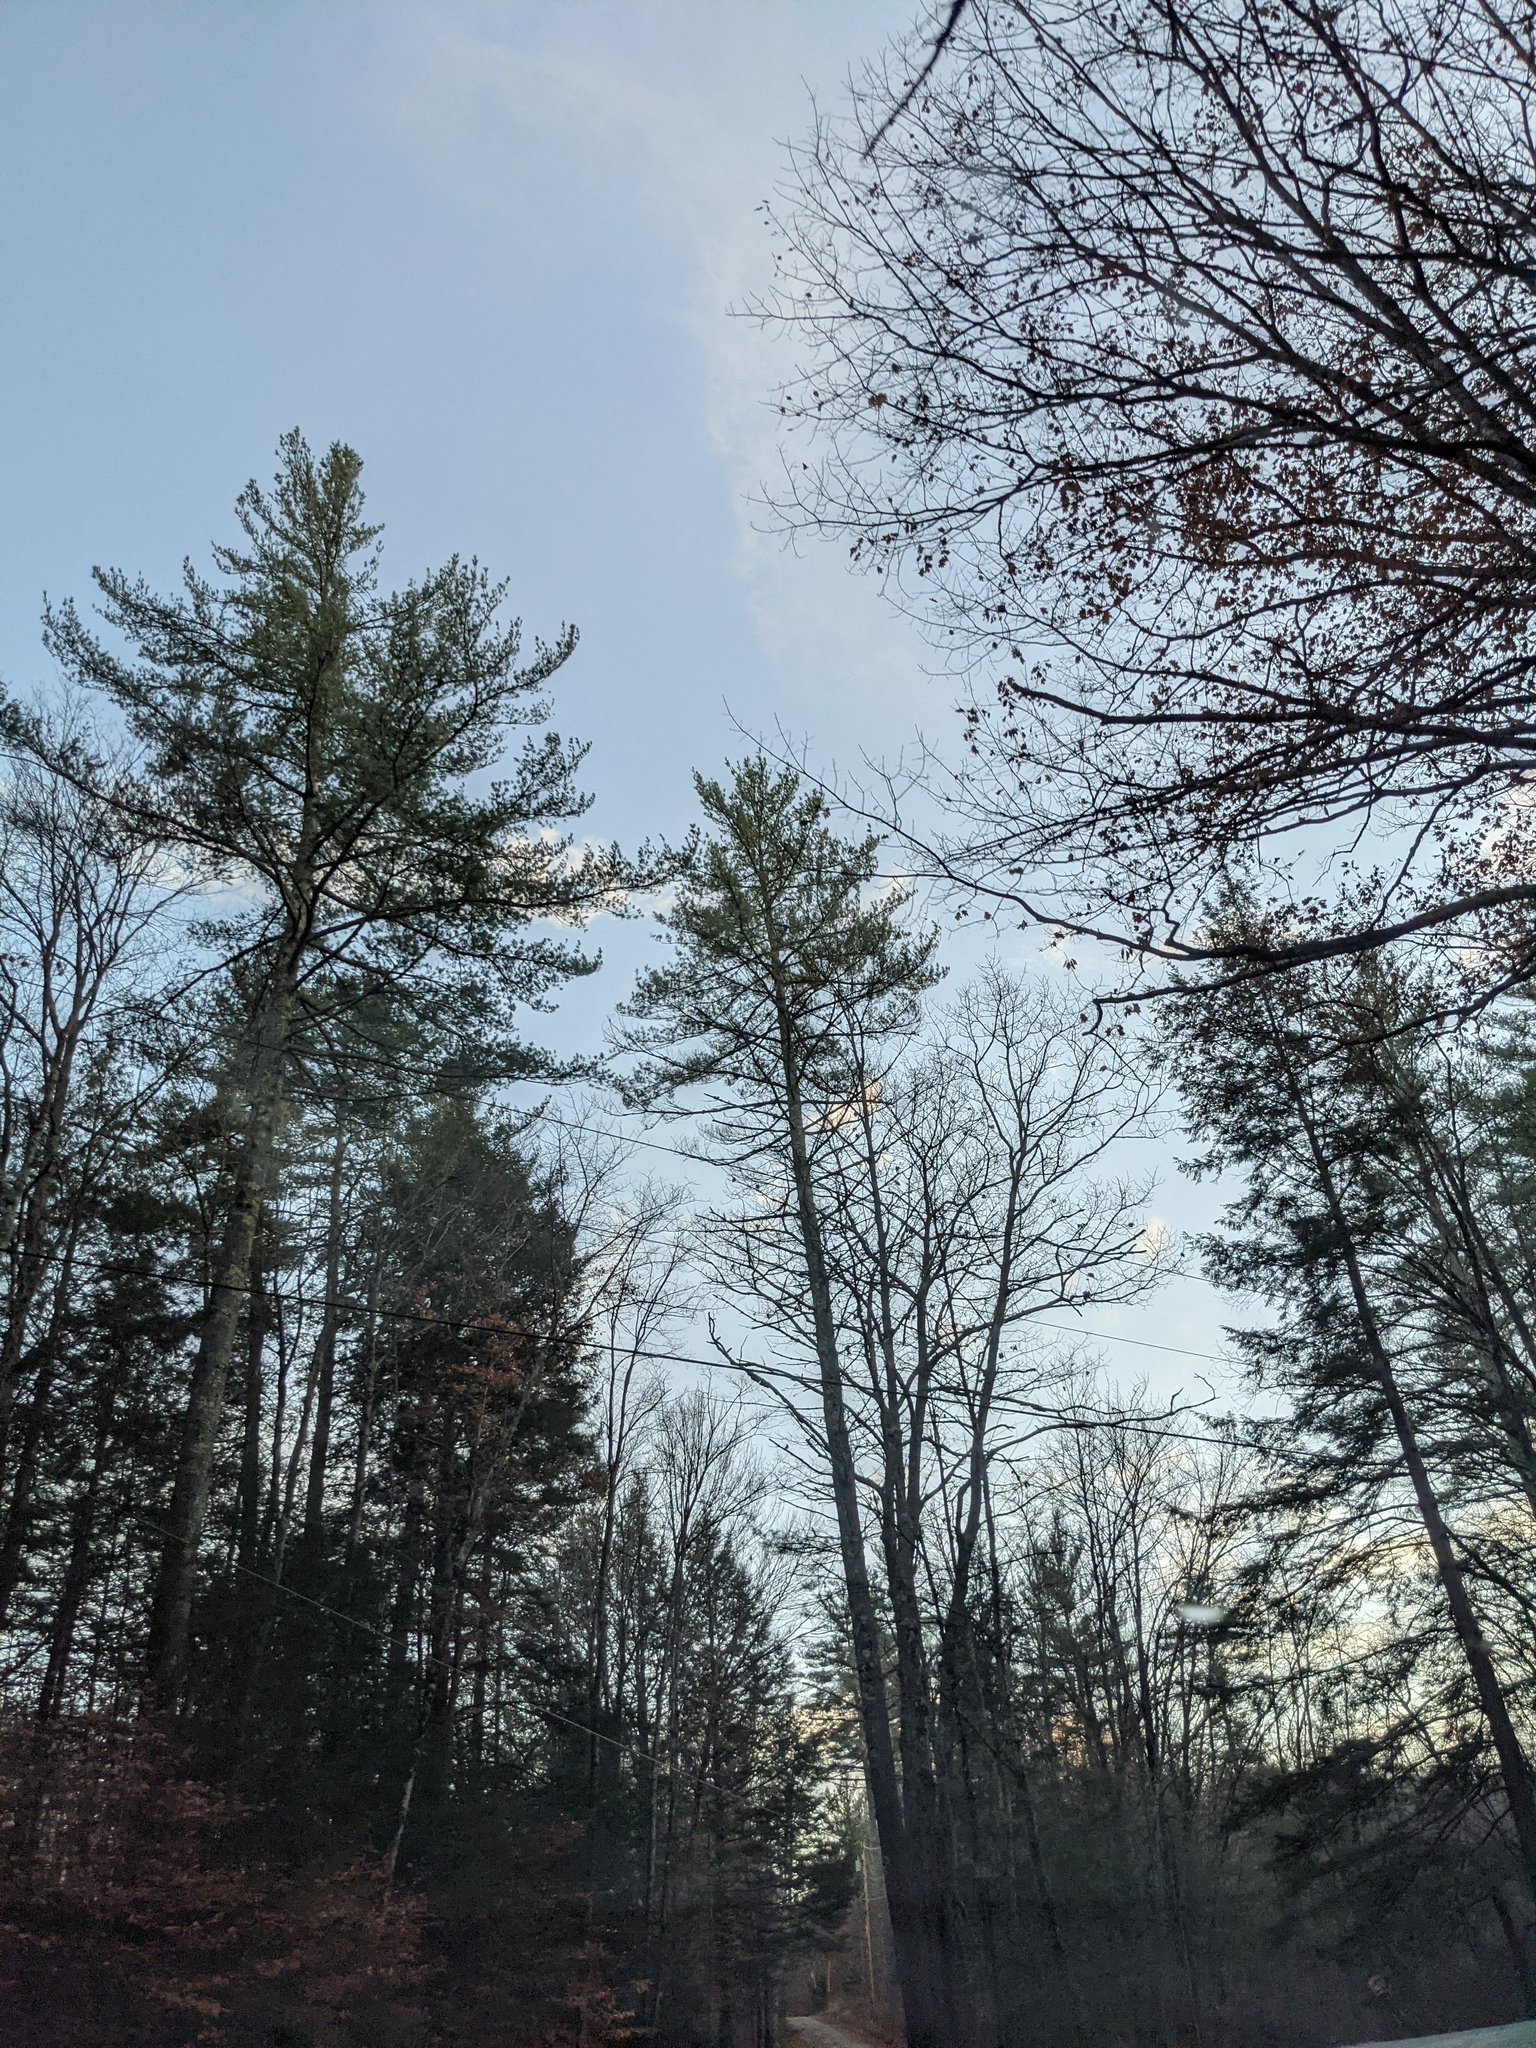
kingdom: Plantae
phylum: Tracheophyta
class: Pinopsida
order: Pinales
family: Pinaceae
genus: Pinus
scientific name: Pinus strobus
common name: Weymouth pine
